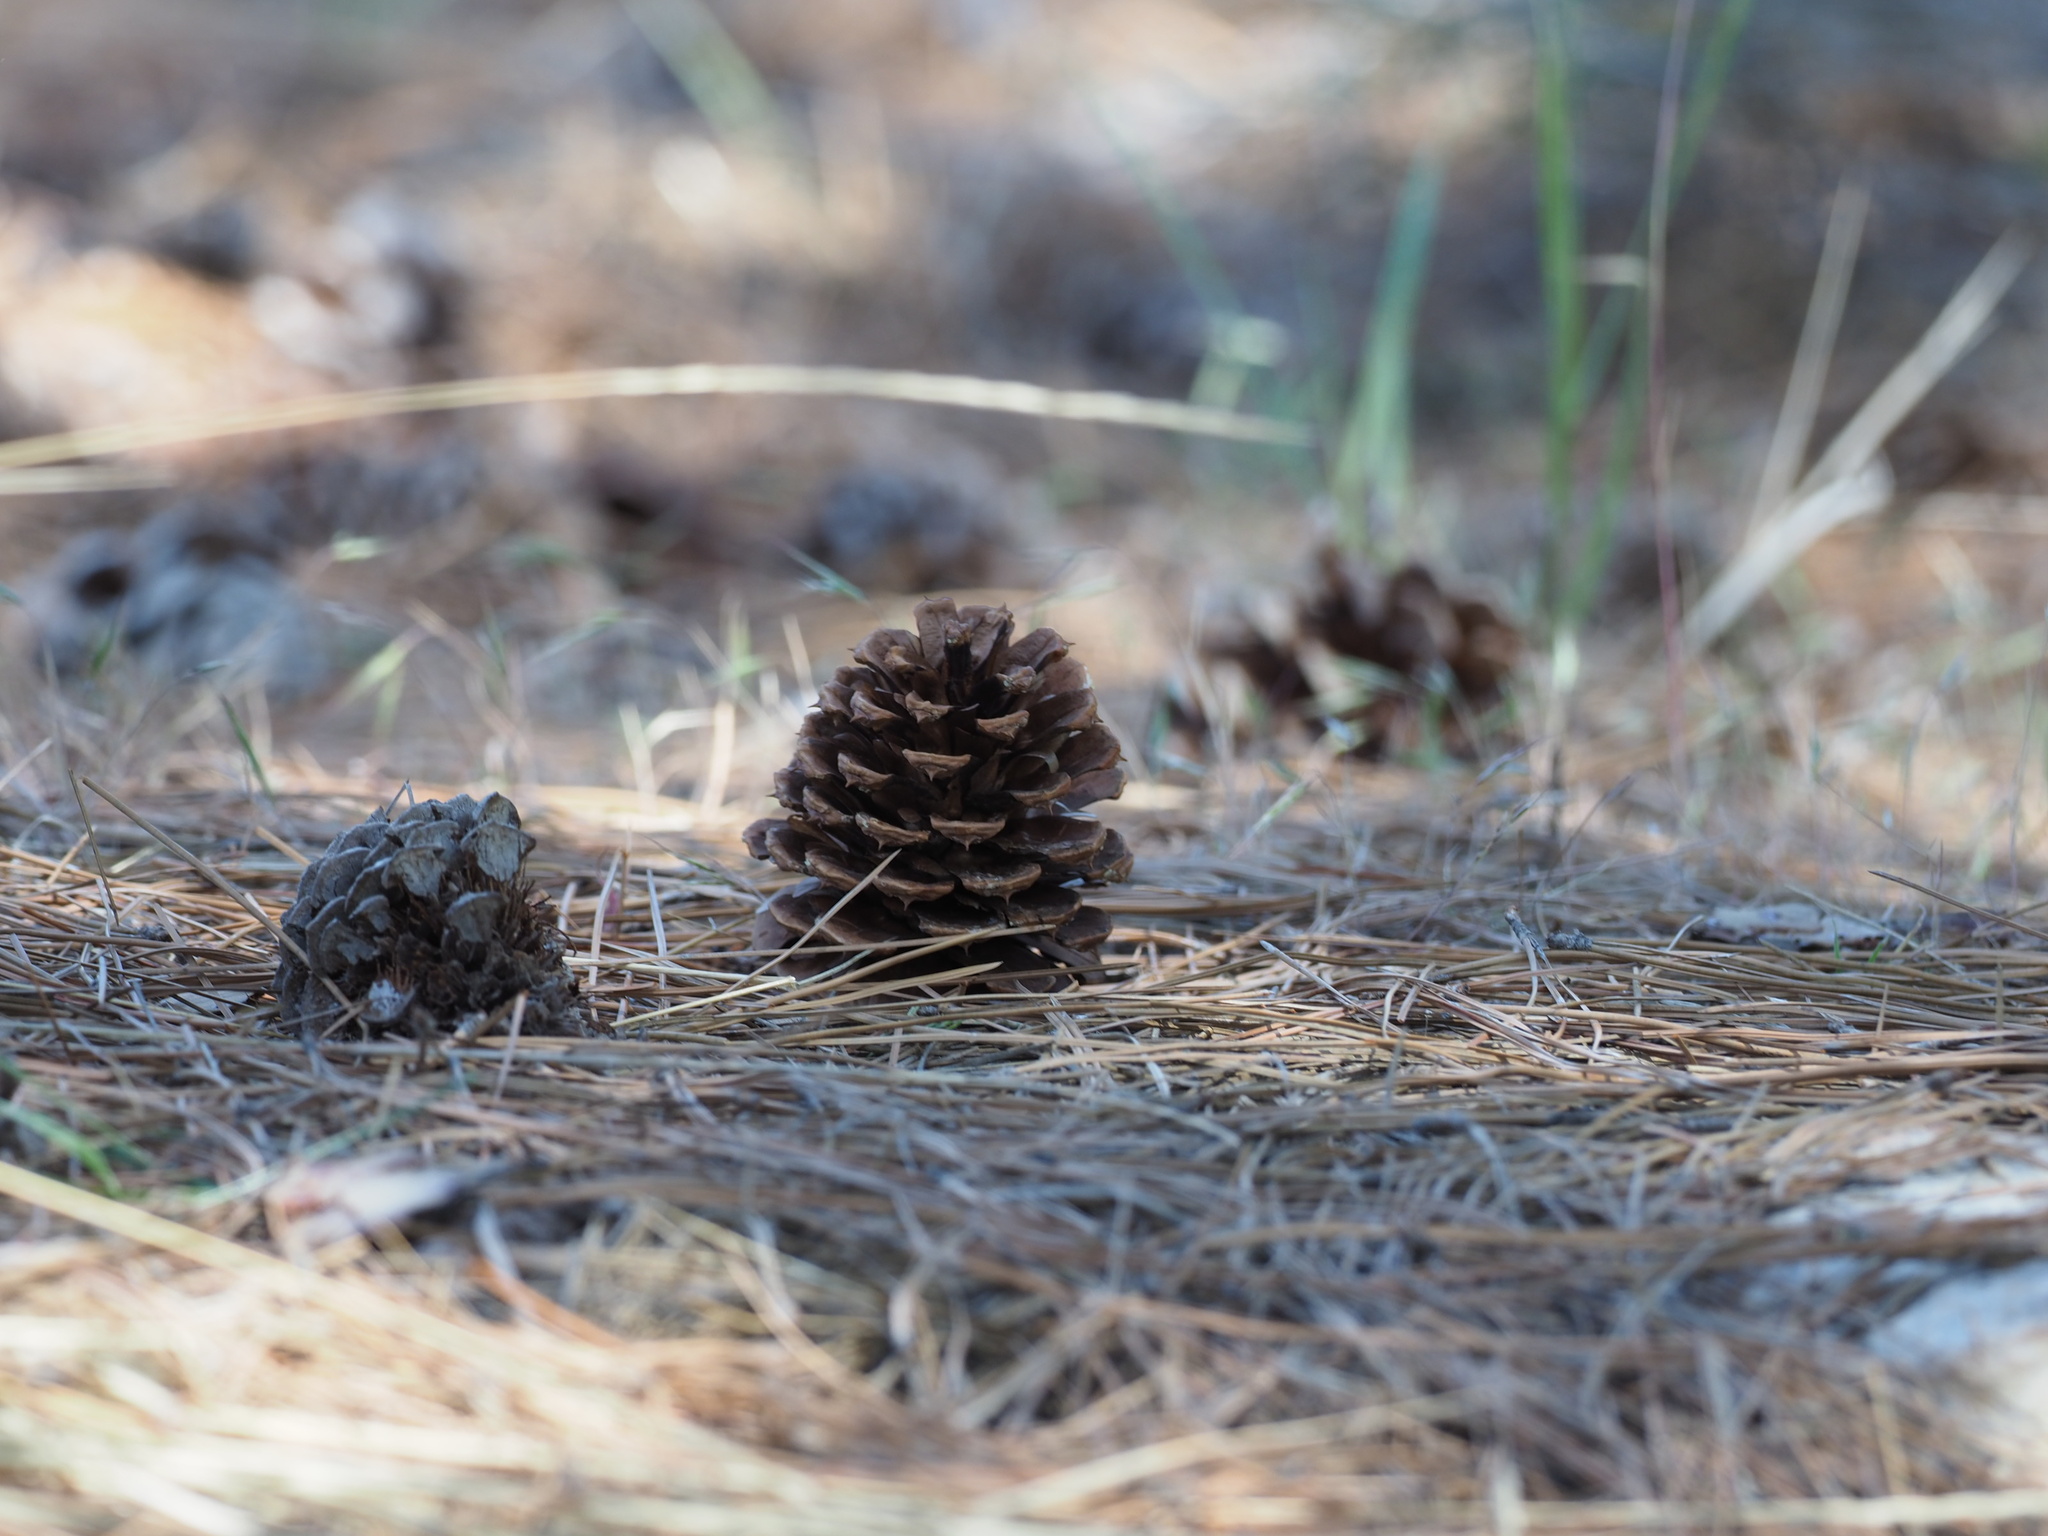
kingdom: Plantae
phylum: Tracheophyta
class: Pinopsida
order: Pinales
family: Pinaceae
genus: Pinus
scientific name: Pinus ponderosa
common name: Western yellow-pine
